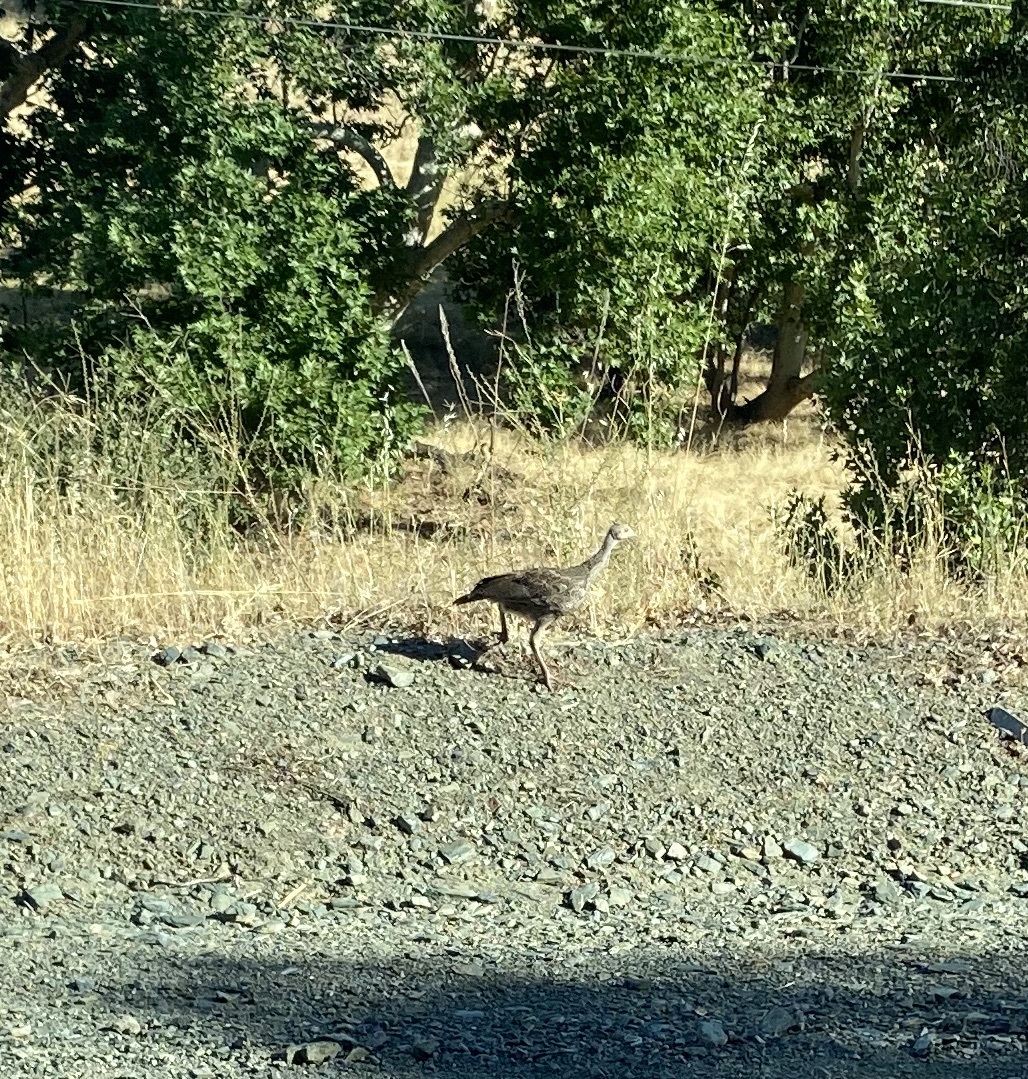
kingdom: Animalia
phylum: Chordata
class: Aves
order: Galliformes
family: Phasianidae
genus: Meleagris
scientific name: Meleagris gallopavo
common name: Wild turkey
